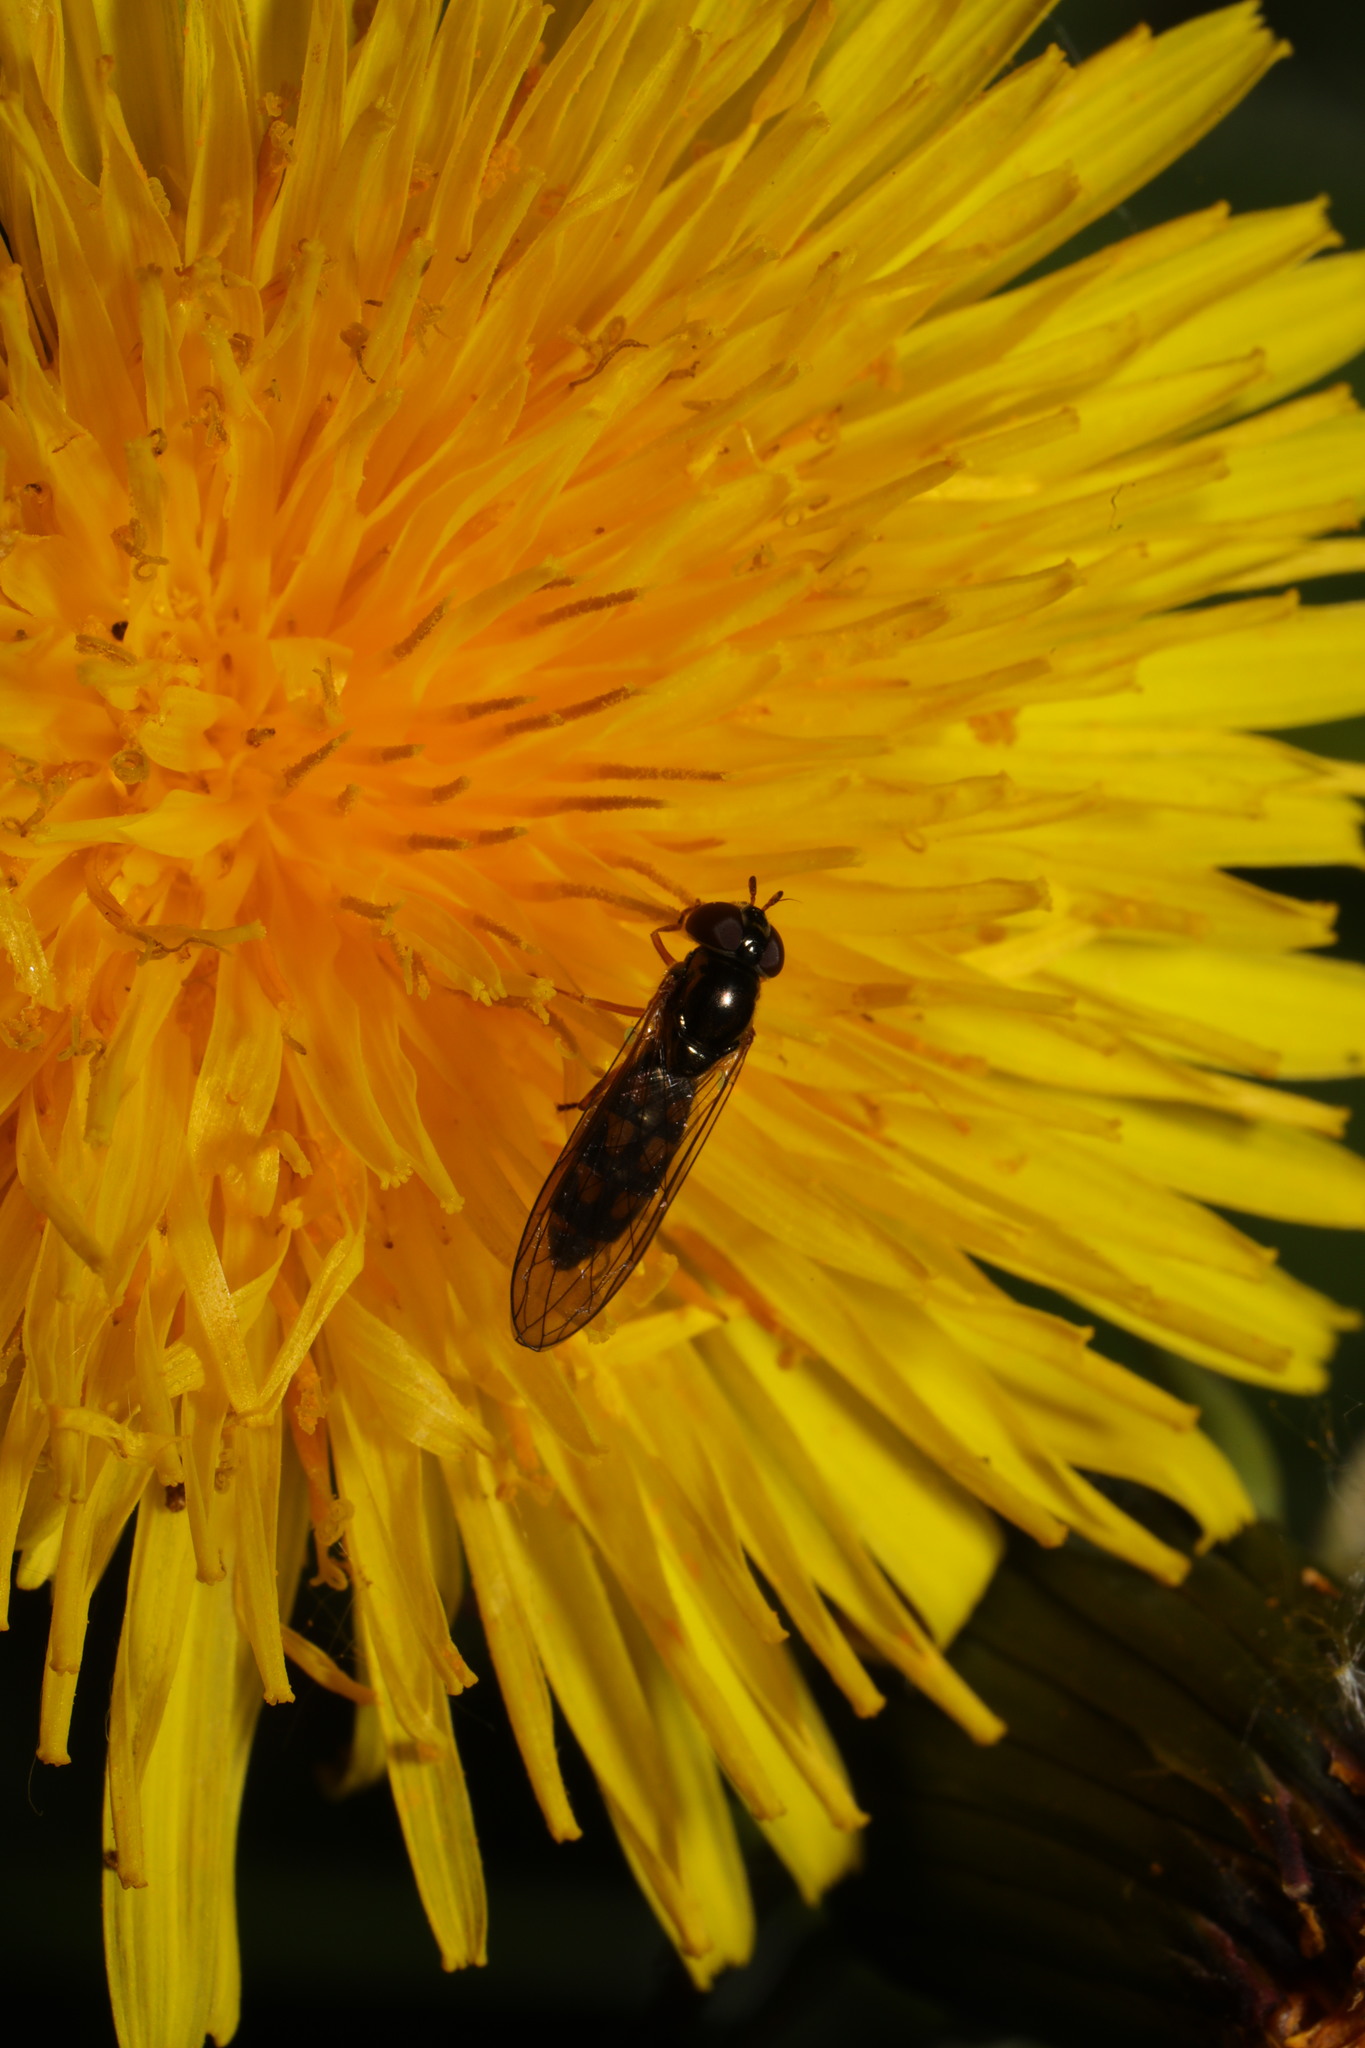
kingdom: Animalia
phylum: Arthropoda
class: Insecta
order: Diptera
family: Syrphidae
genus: Melanostoma
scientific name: Melanostoma scalare
